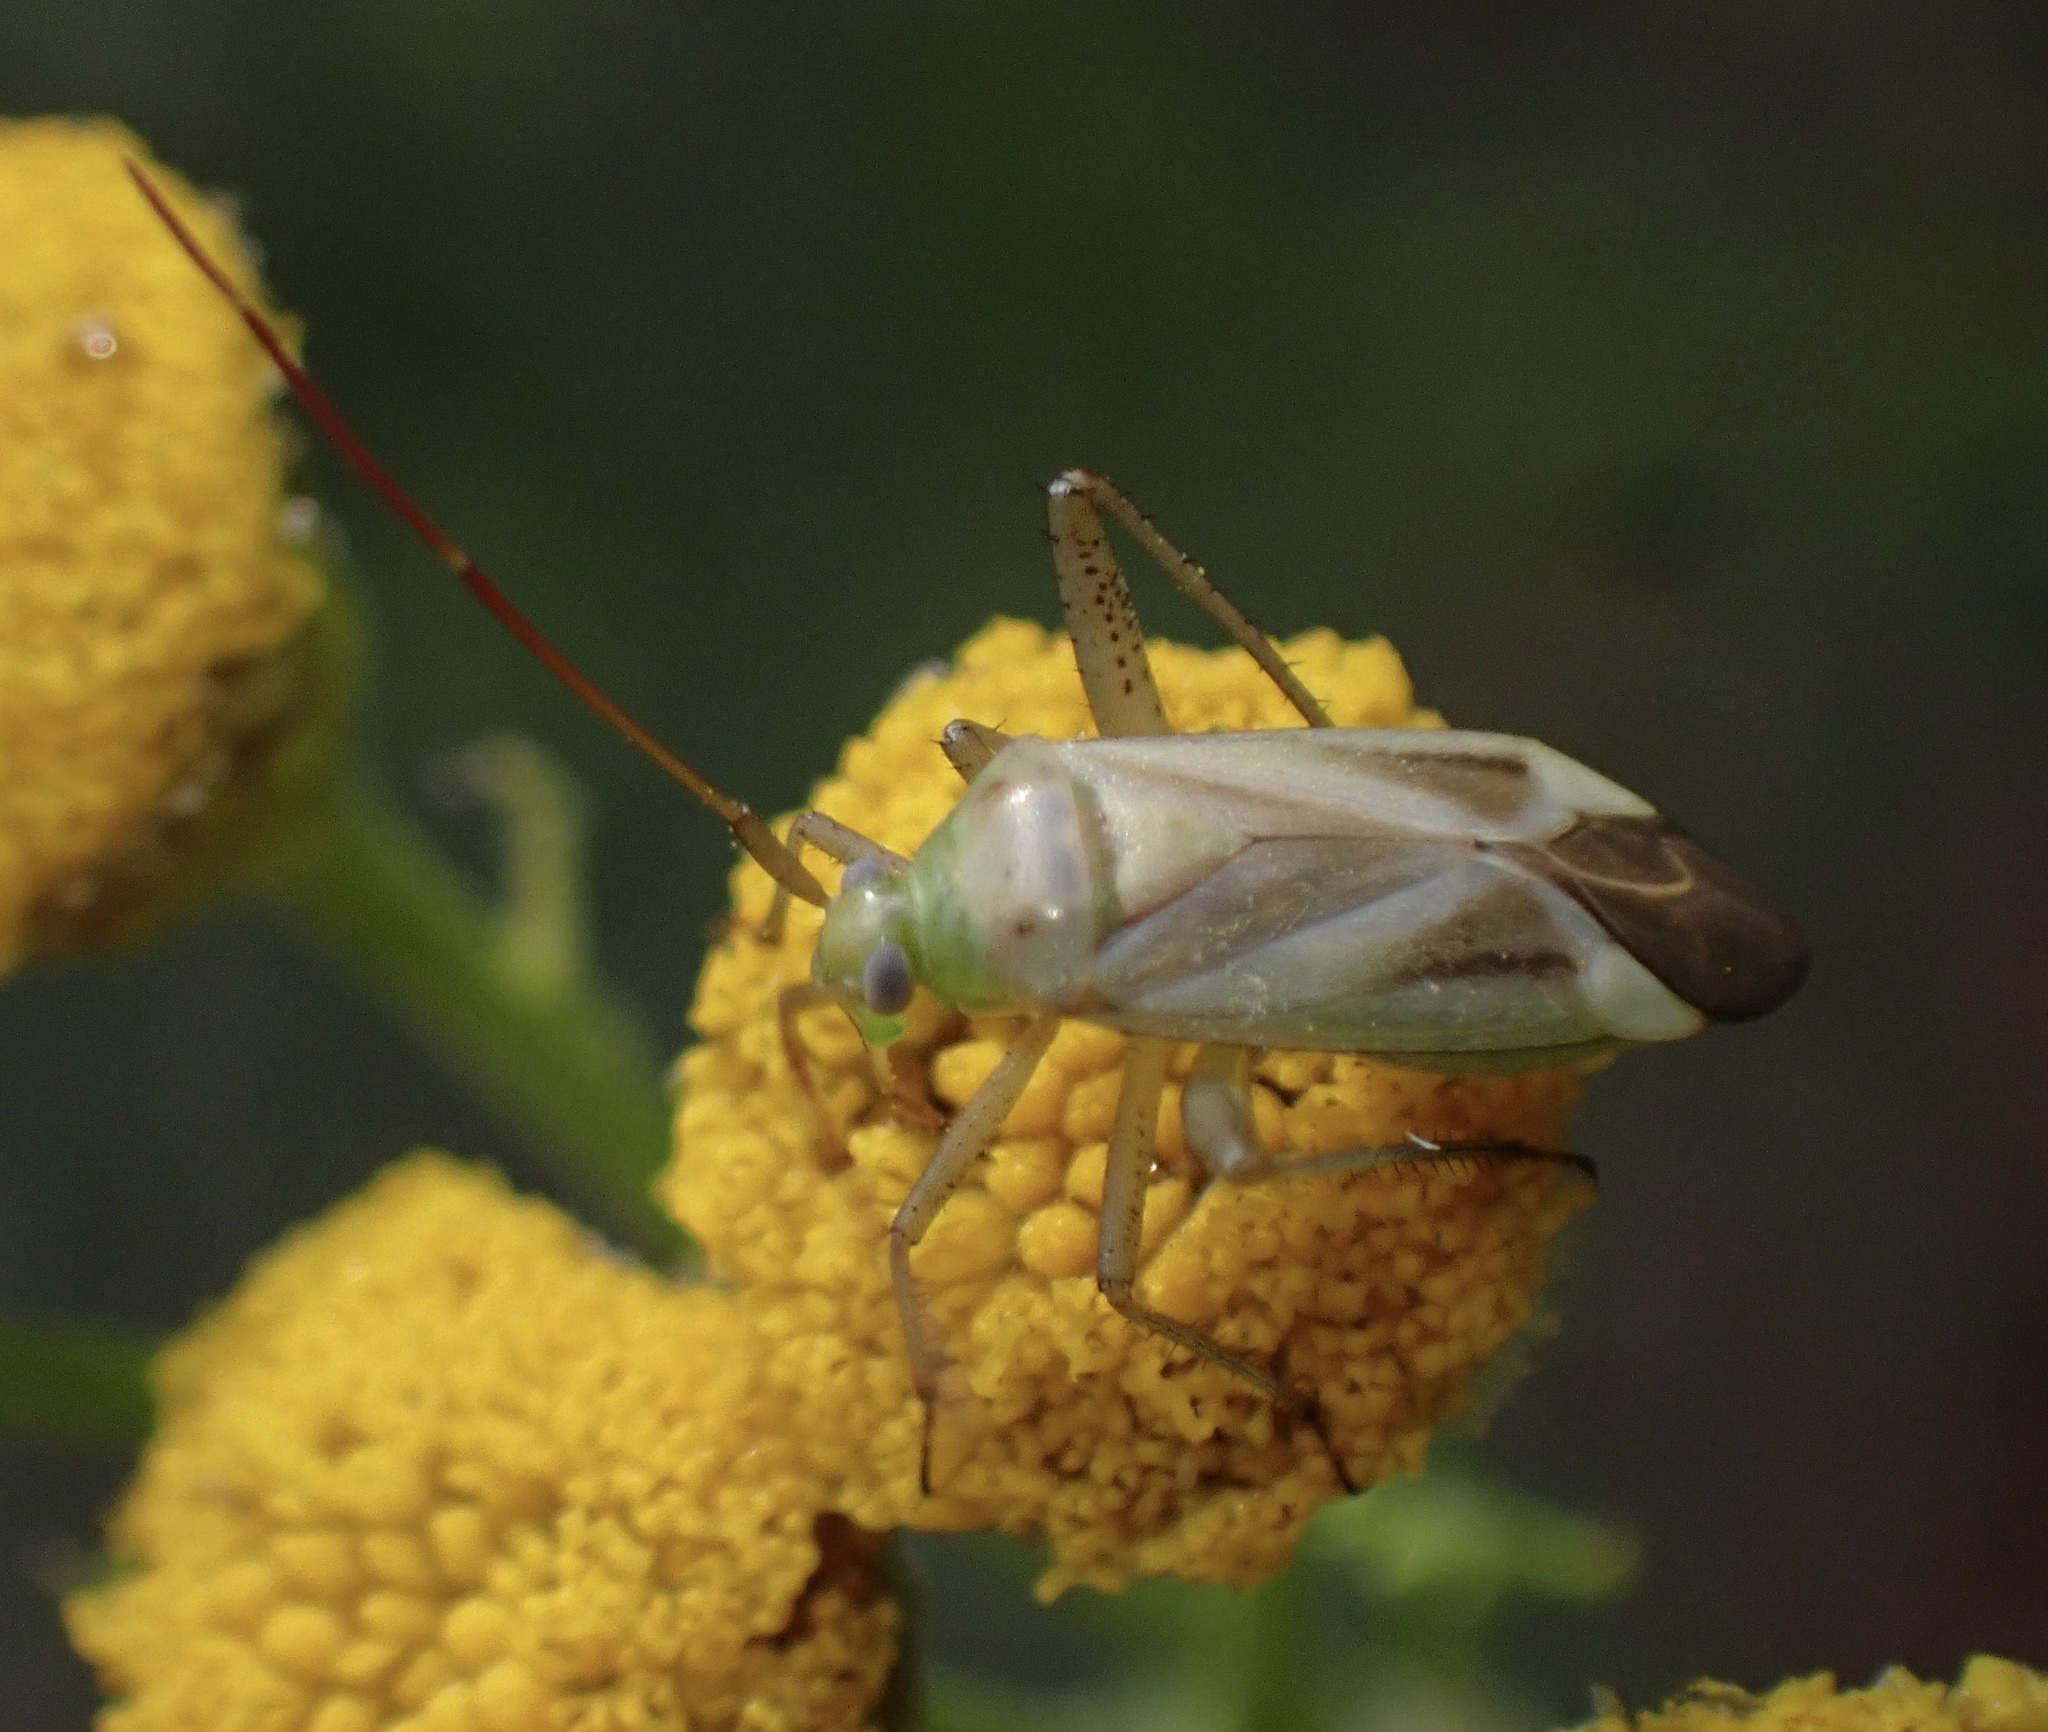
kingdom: Animalia
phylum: Arthropoda
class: Insecta
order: Hemiptera
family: Miridae
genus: Adelphocoris
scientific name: Adelphocoris lineolatus
